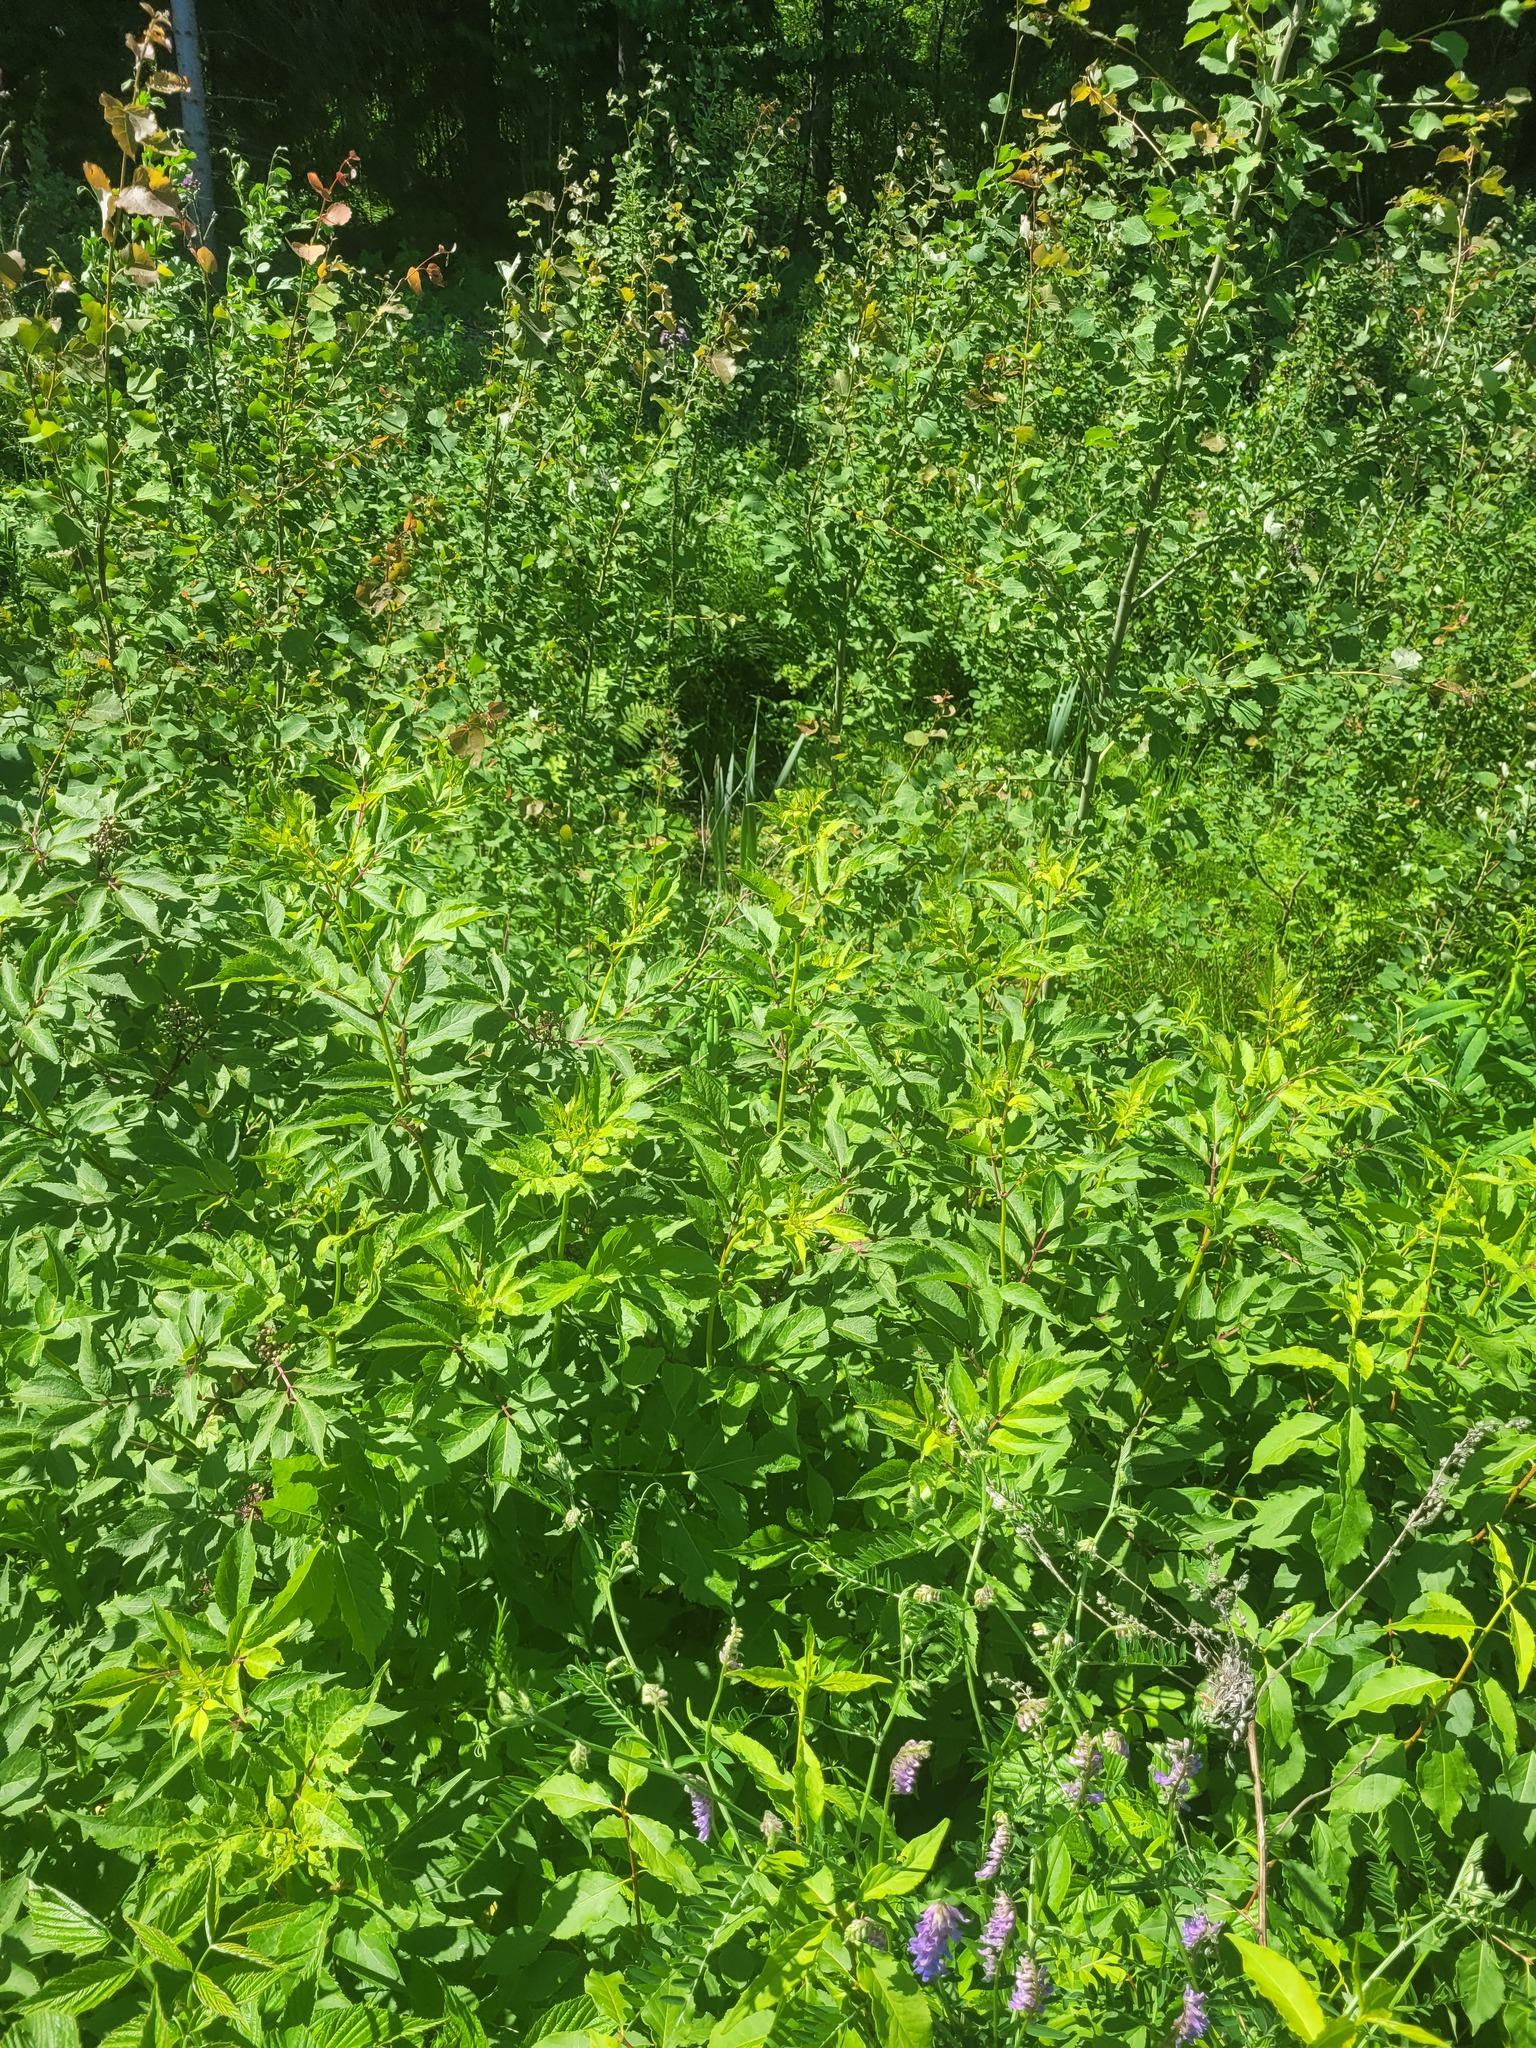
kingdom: Plantae
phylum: Tracheophyta
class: Magnoliopsida
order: Dipsacales
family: Viburnaceae
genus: Sambucus
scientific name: Sambucus racemosa
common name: Red-berried elder
